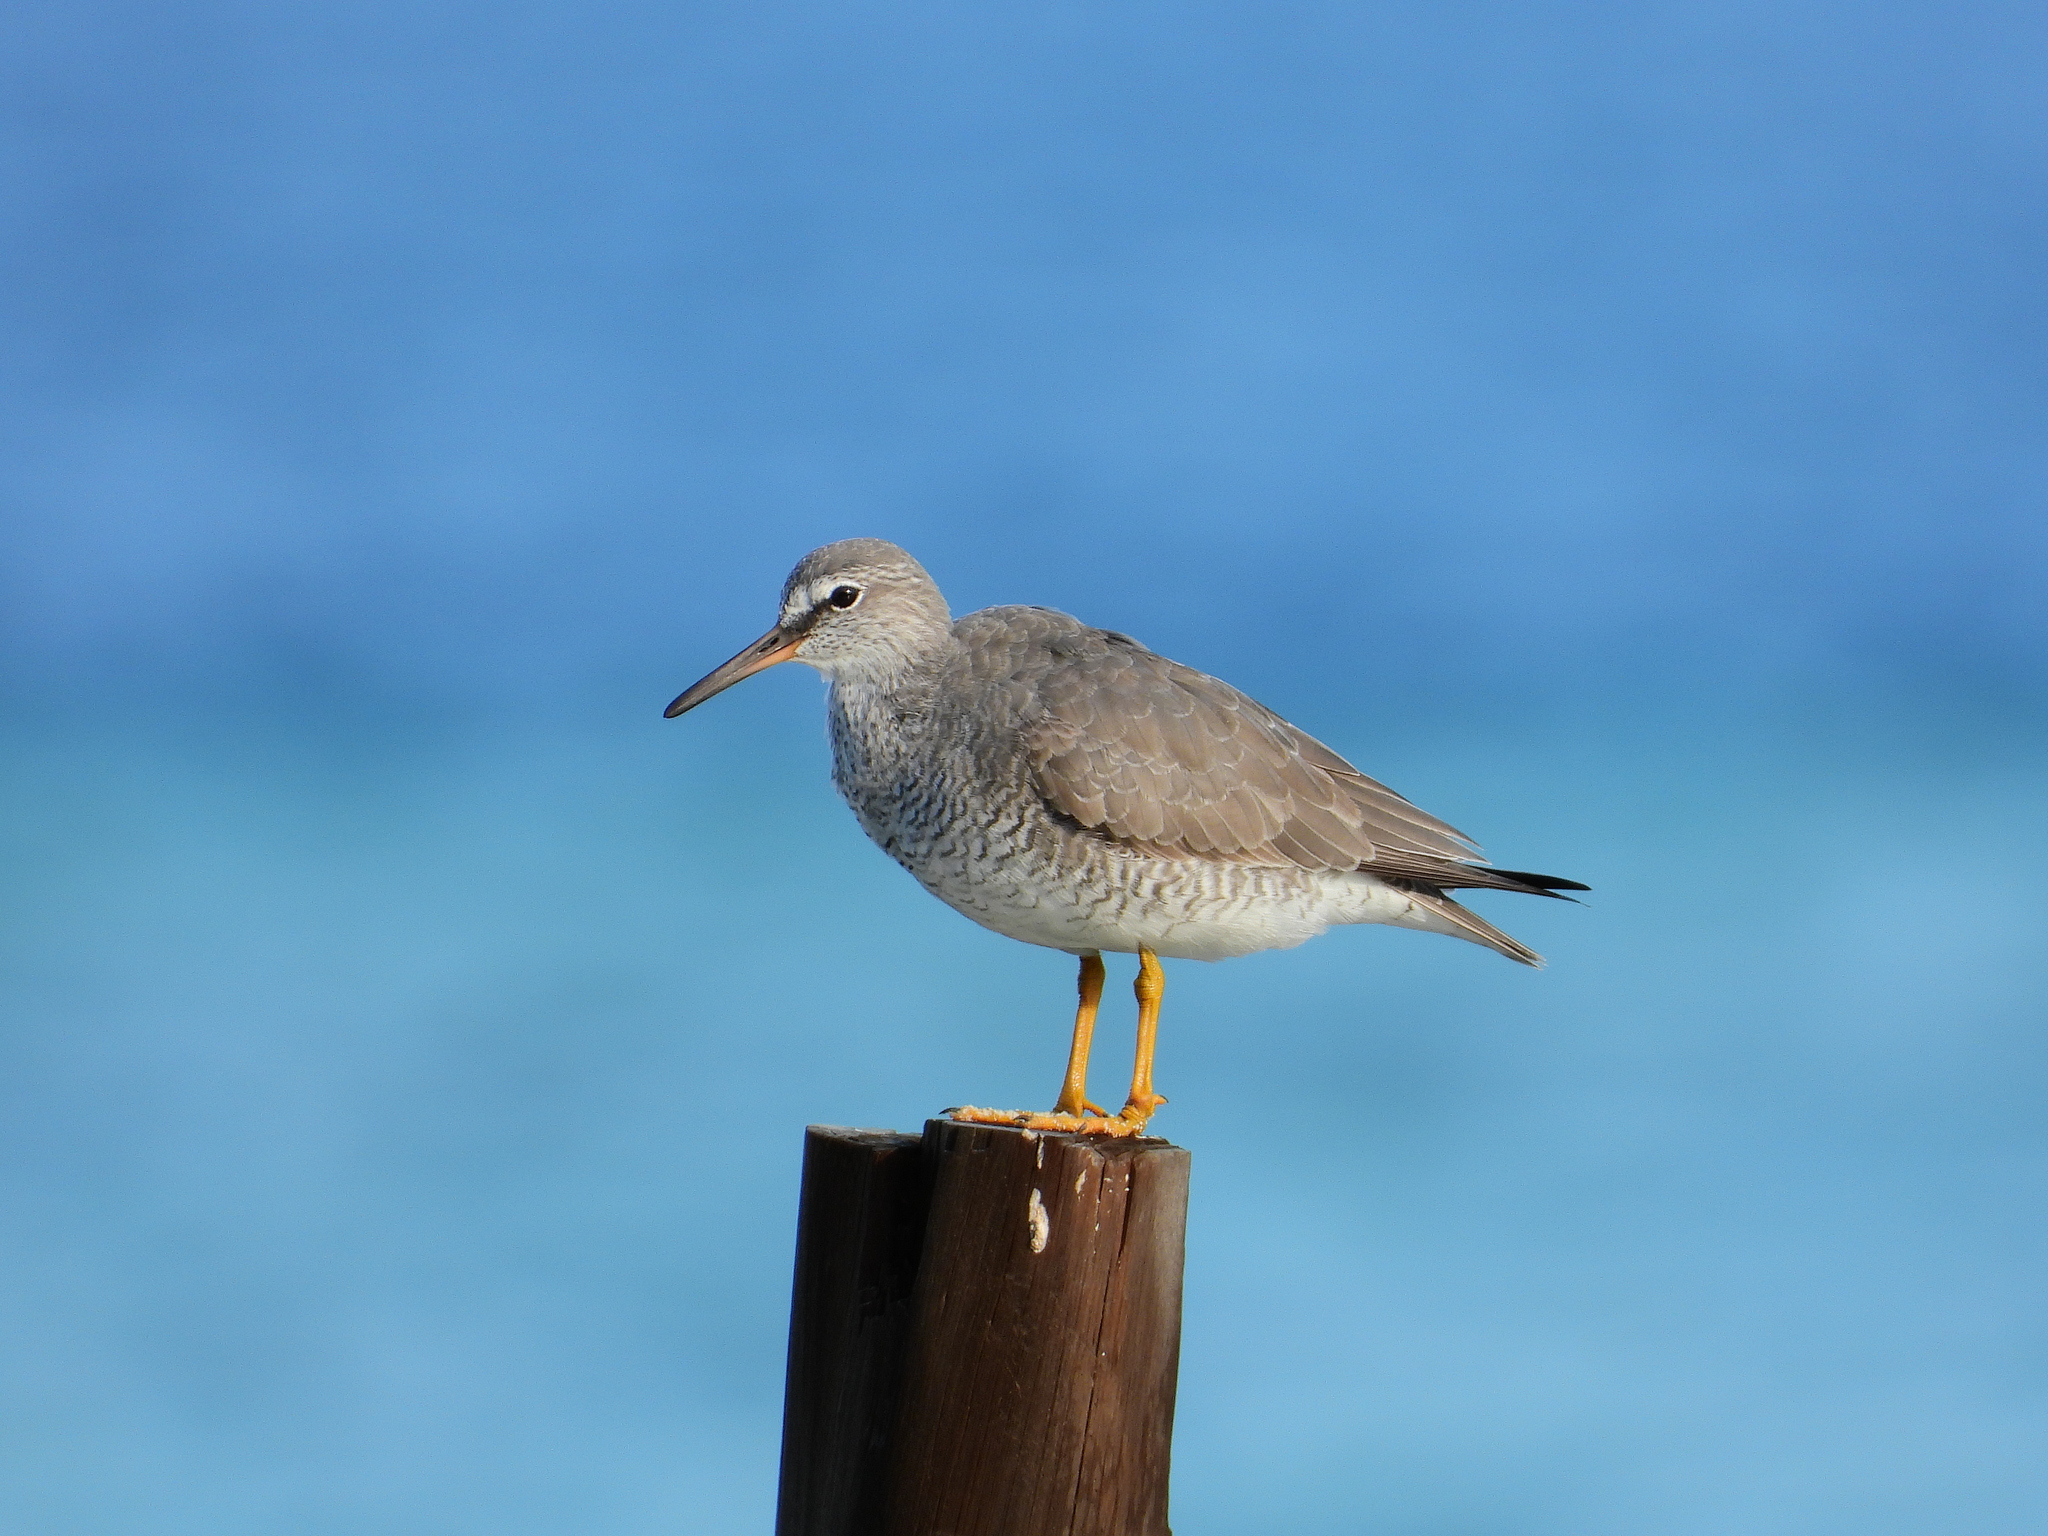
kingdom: Animalia
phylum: Chordata
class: Aves
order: Charadriiformes
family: Scolopacidae
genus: Tringa
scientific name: Tringa brevipes
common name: Grey-tailed tattler
